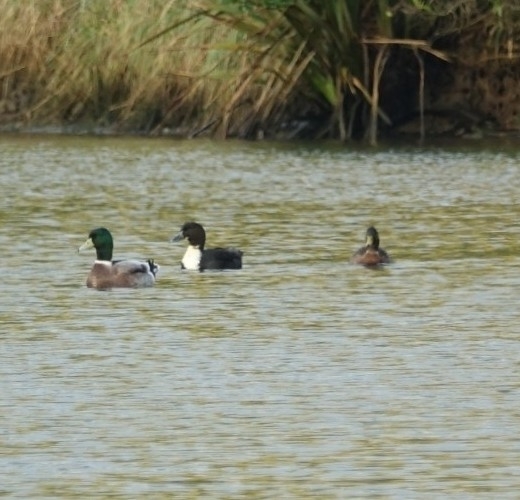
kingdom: Animalia
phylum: Chordata
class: Aves
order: Anseriformes
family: Anatidae
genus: Anas
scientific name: Anas platyrhynchos
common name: Mallard
